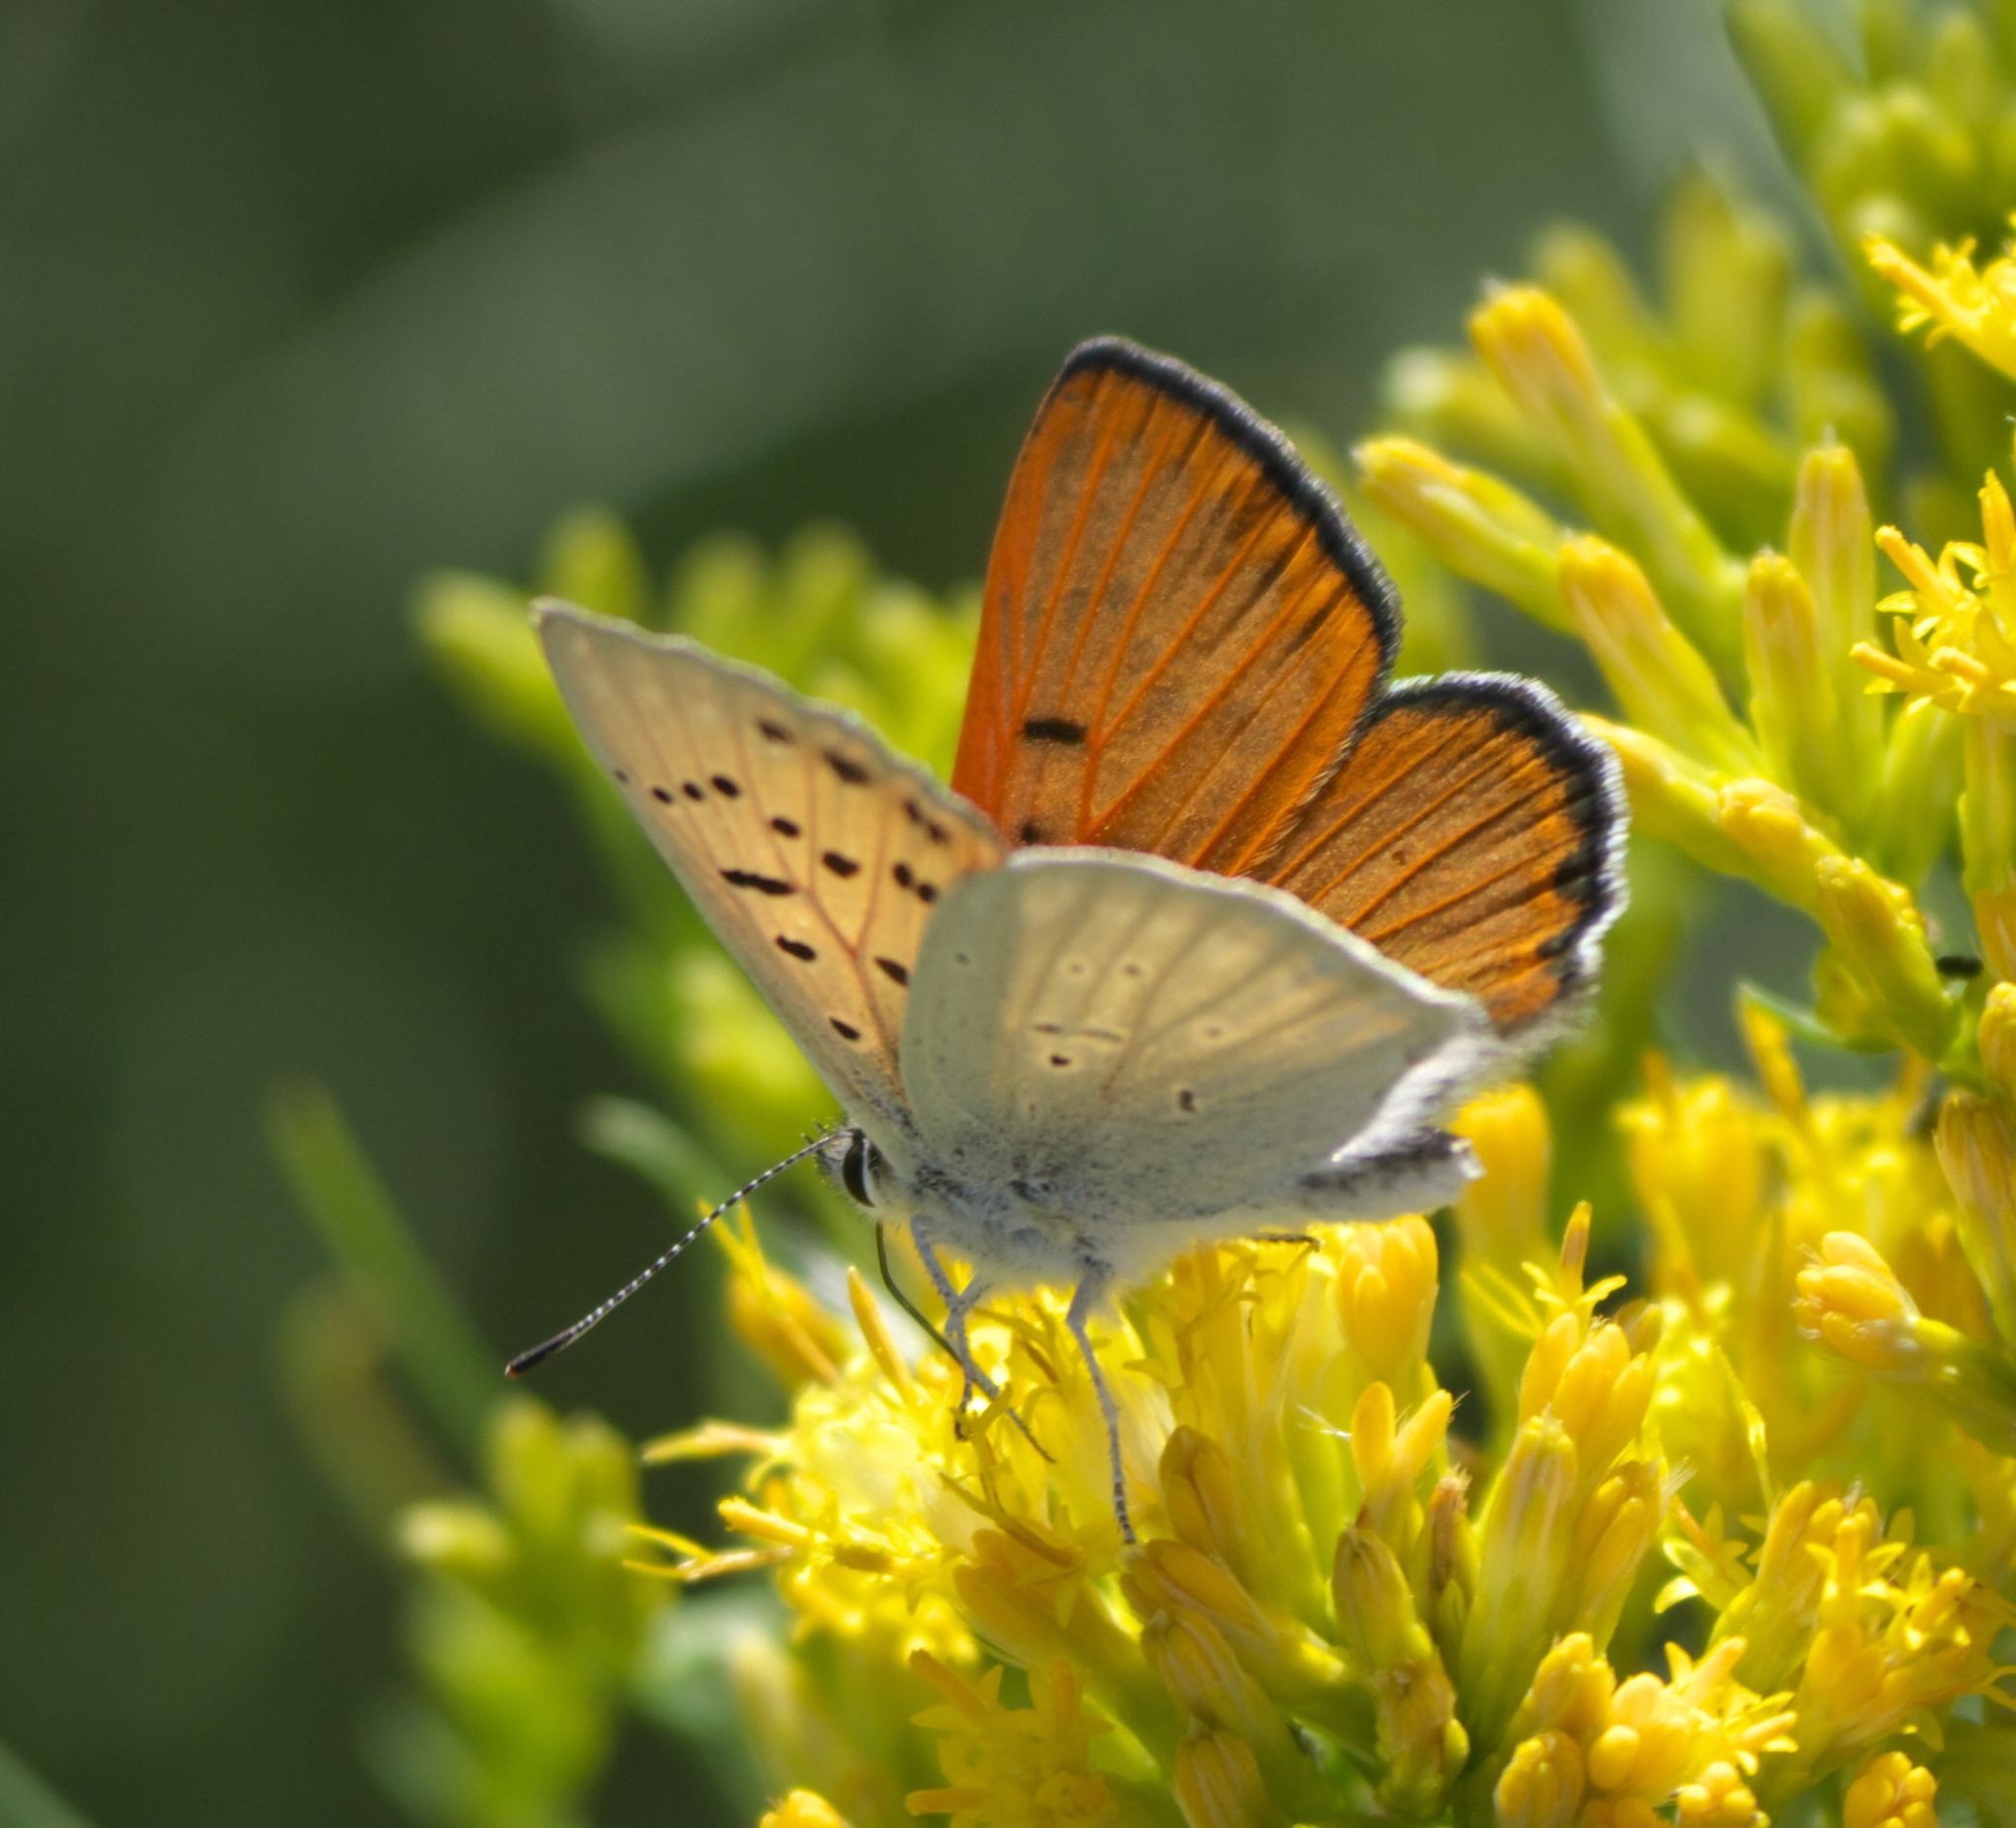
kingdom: Animalia
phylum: Arthropoda
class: Insecta
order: Lepidoptera
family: Lycaenidae
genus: Tharsalea
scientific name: Tharsalea rubidus
